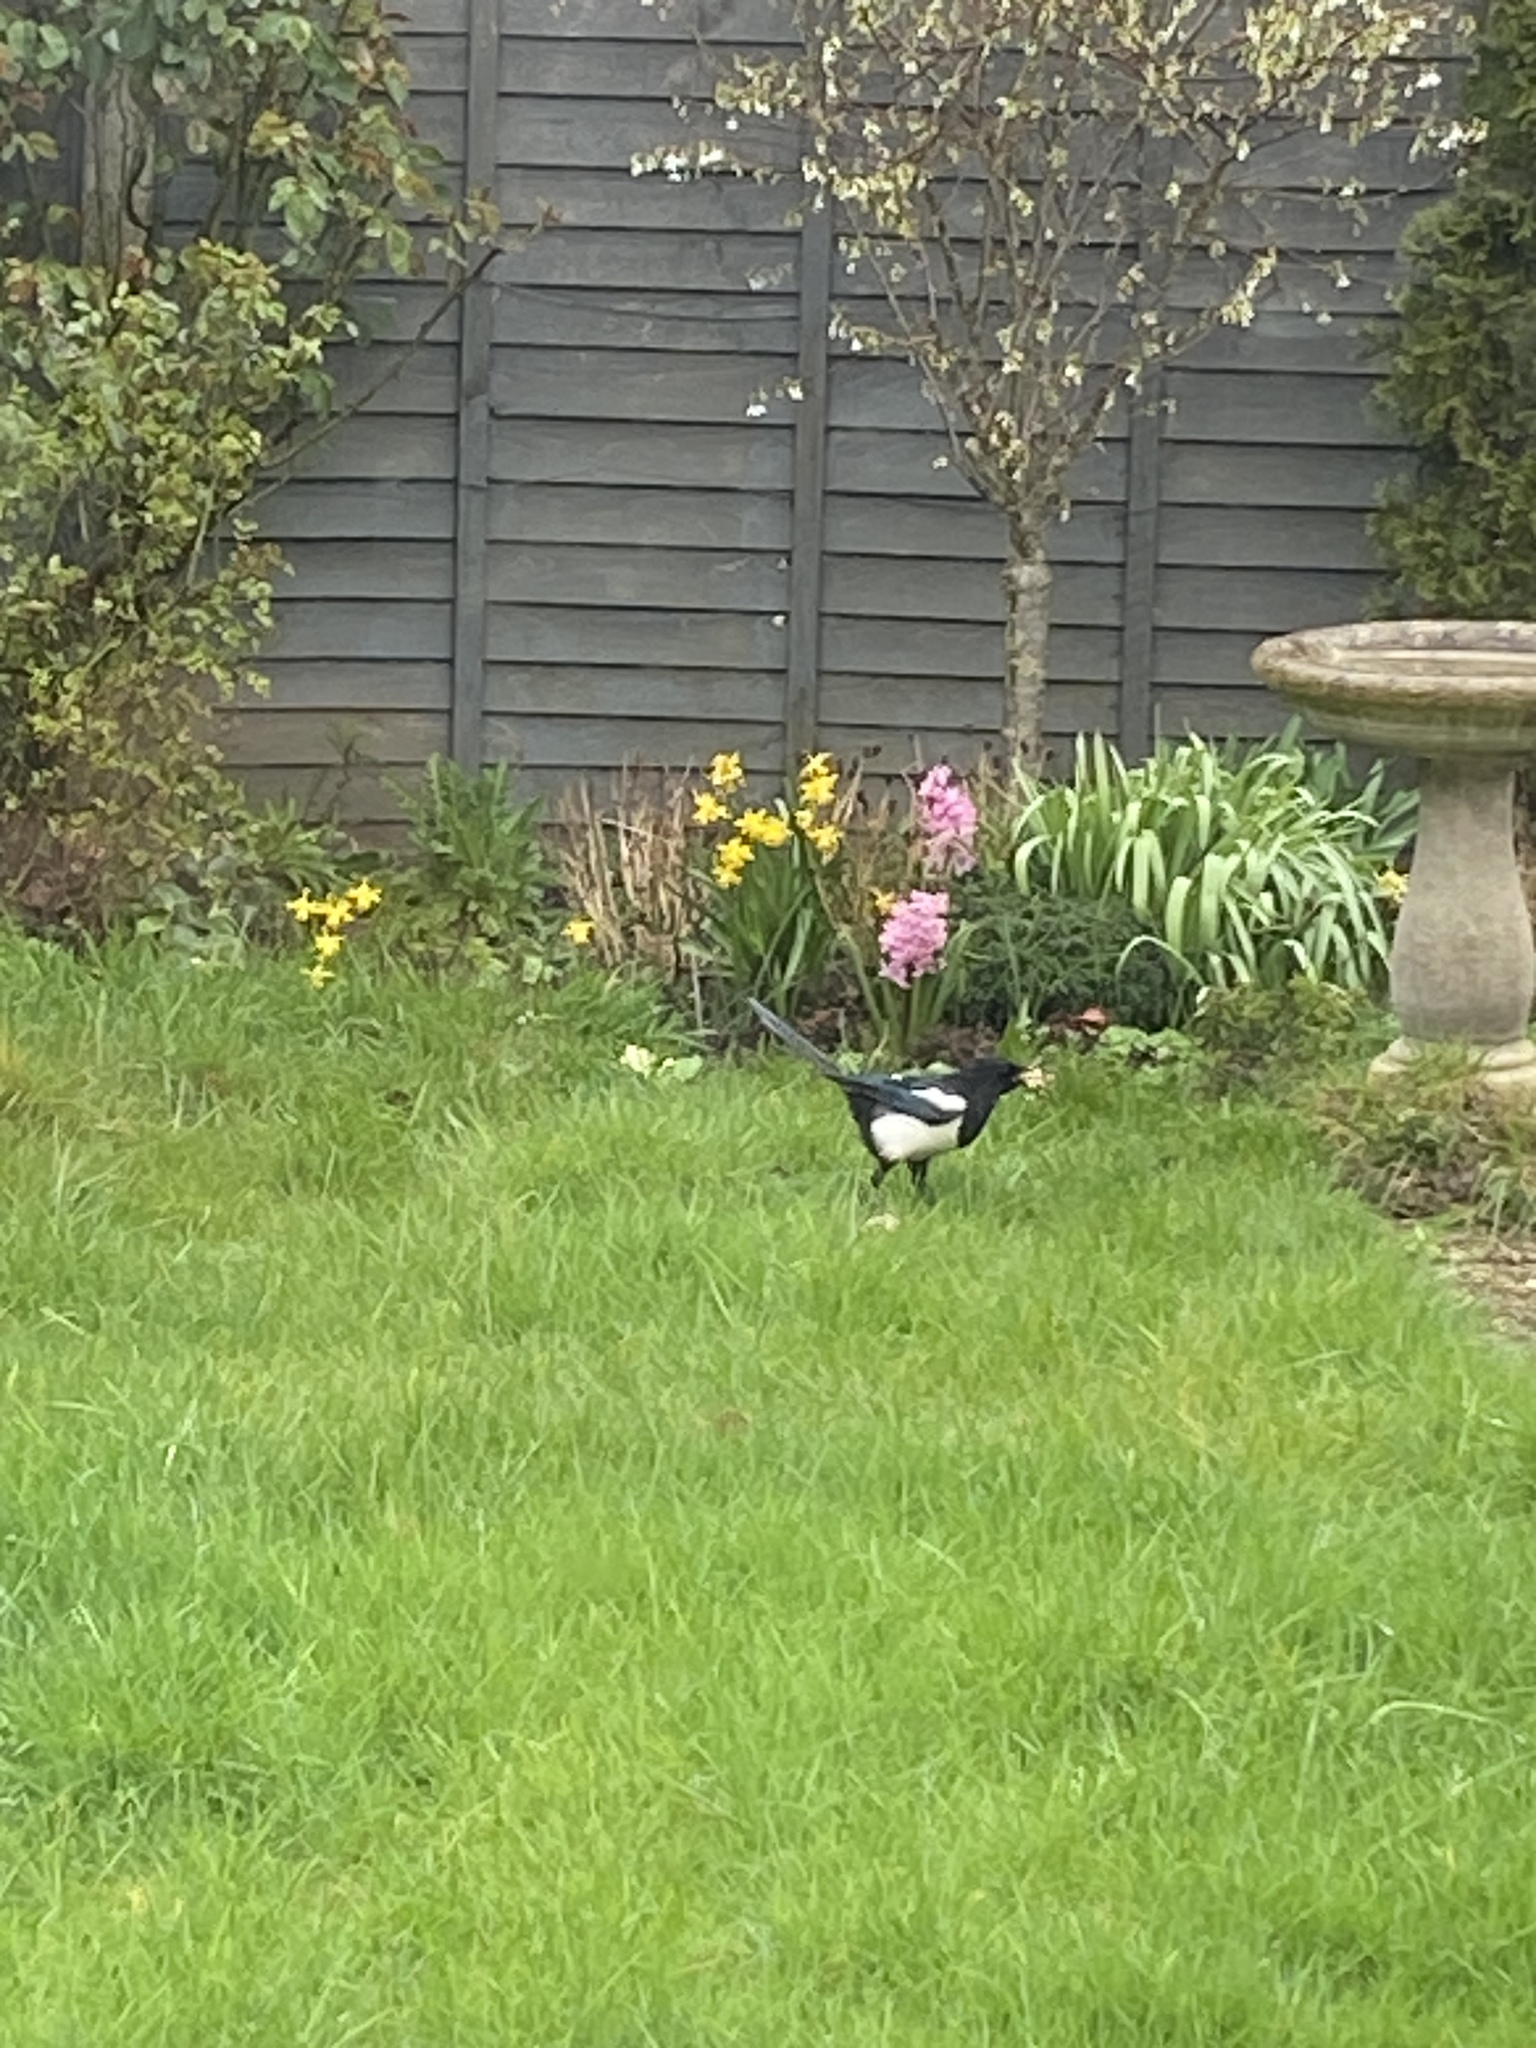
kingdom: Animalia
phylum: Chordata
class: Aves
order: Passeriformes
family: Corvidae
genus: Pica
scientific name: Pica pica
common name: Eurasian magpie
